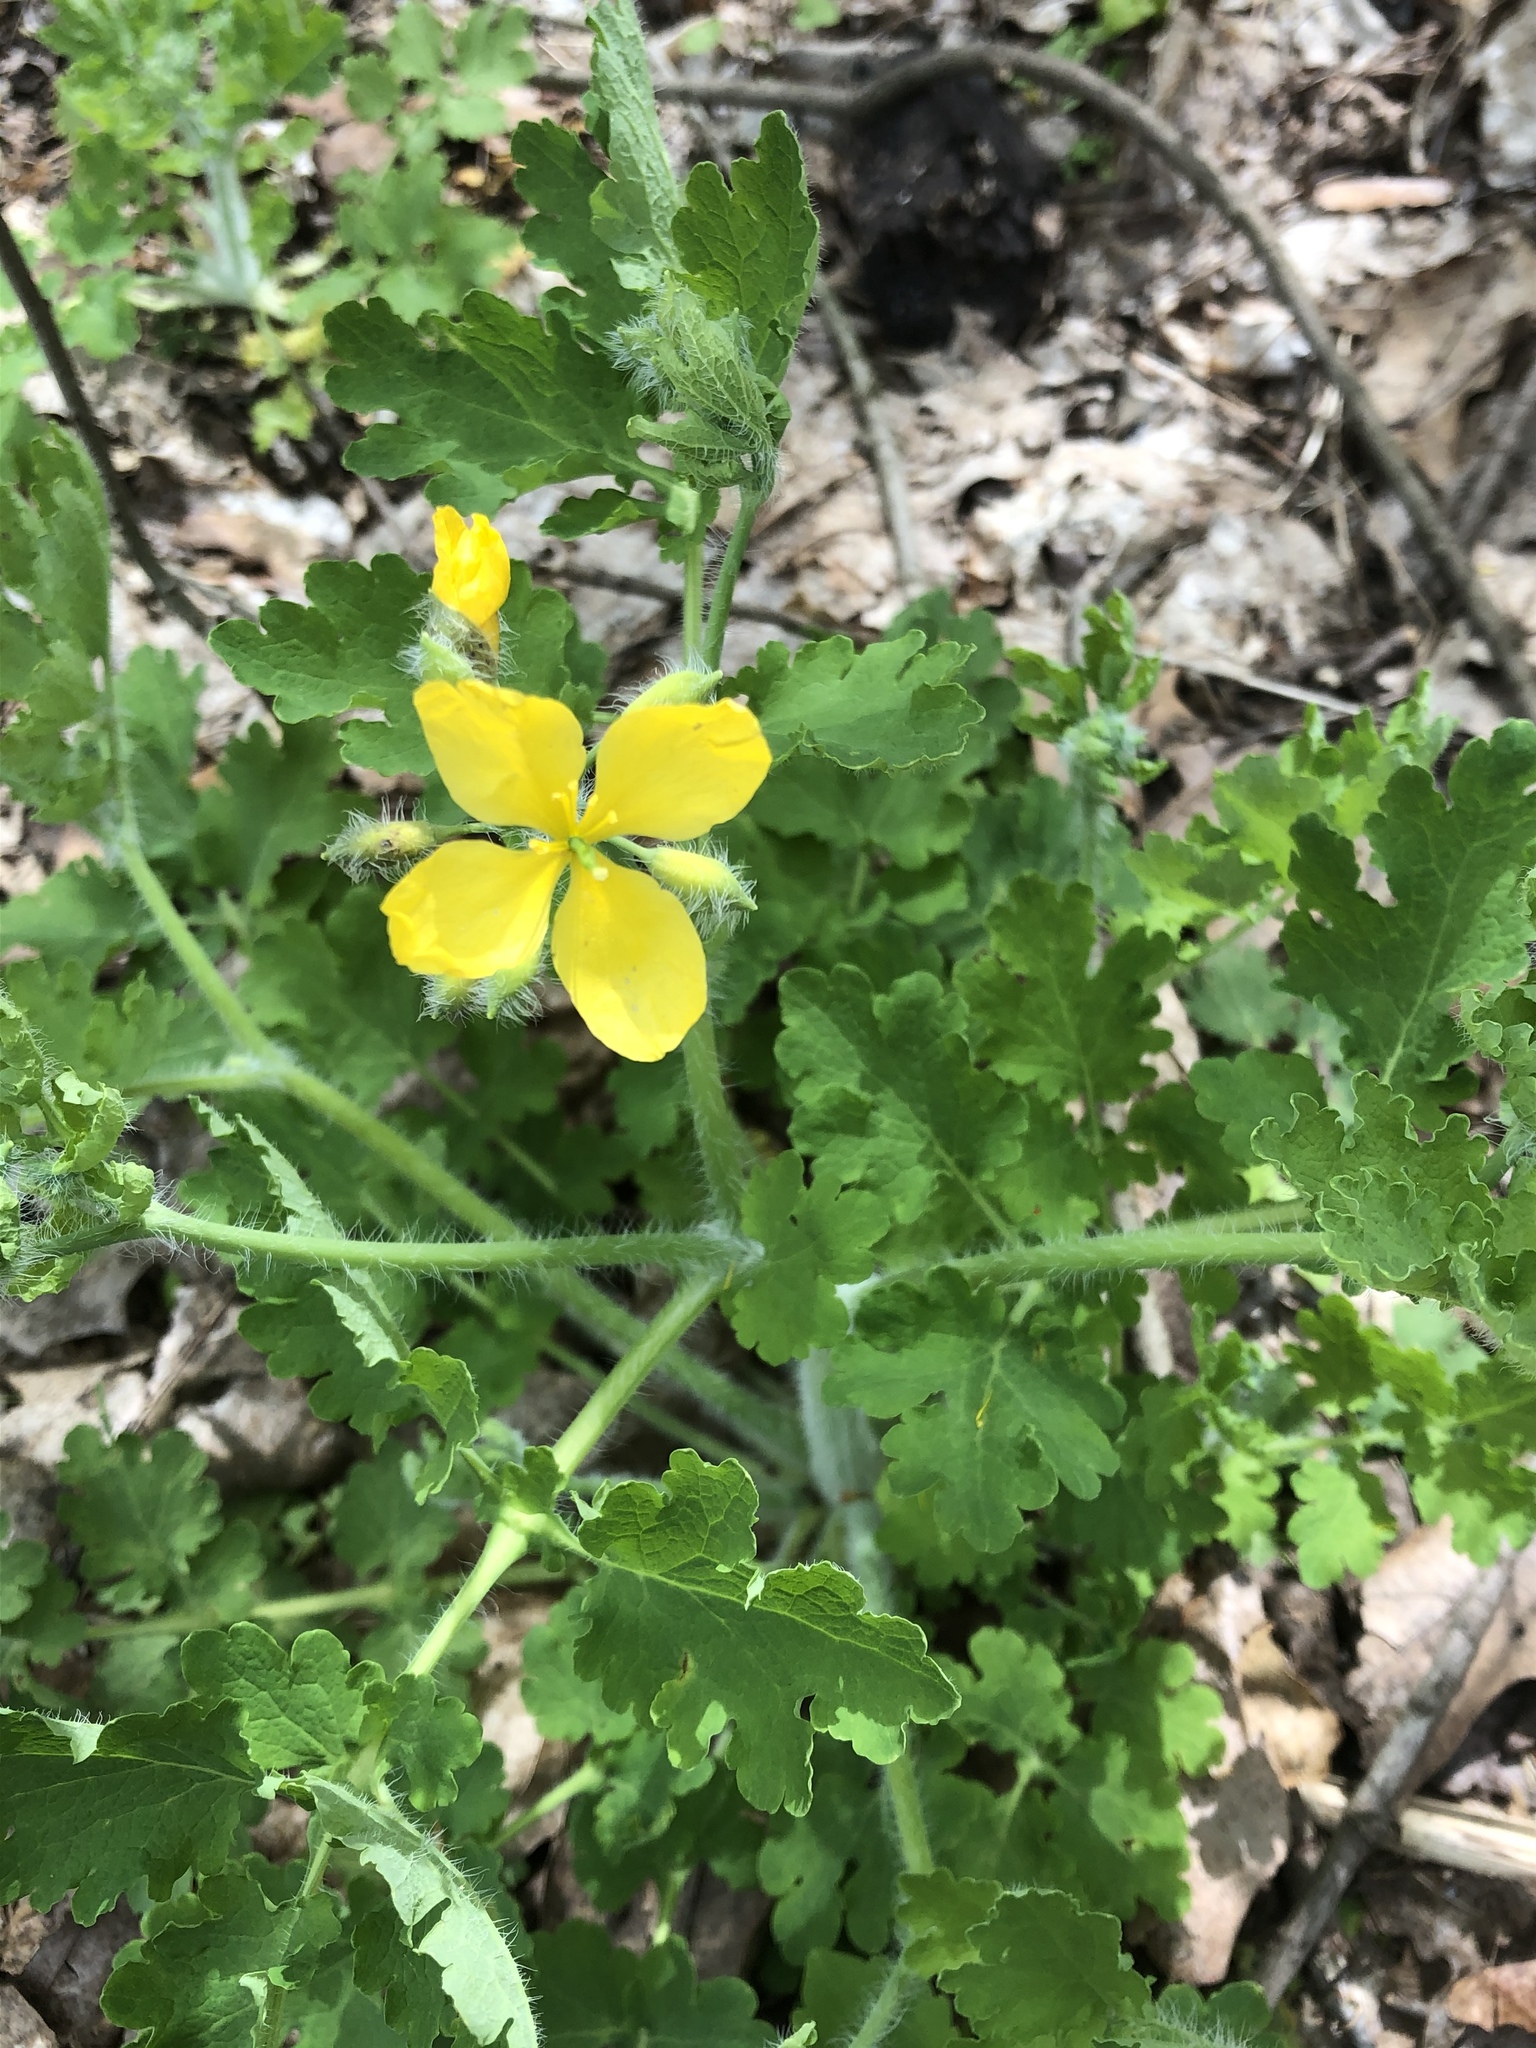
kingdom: Plantae
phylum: Tracheophyta
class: Magnoliopsida
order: Ranunculales
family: Papaveraceae
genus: Chelidonium
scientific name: Chelidonium majus
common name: Greater celandine
